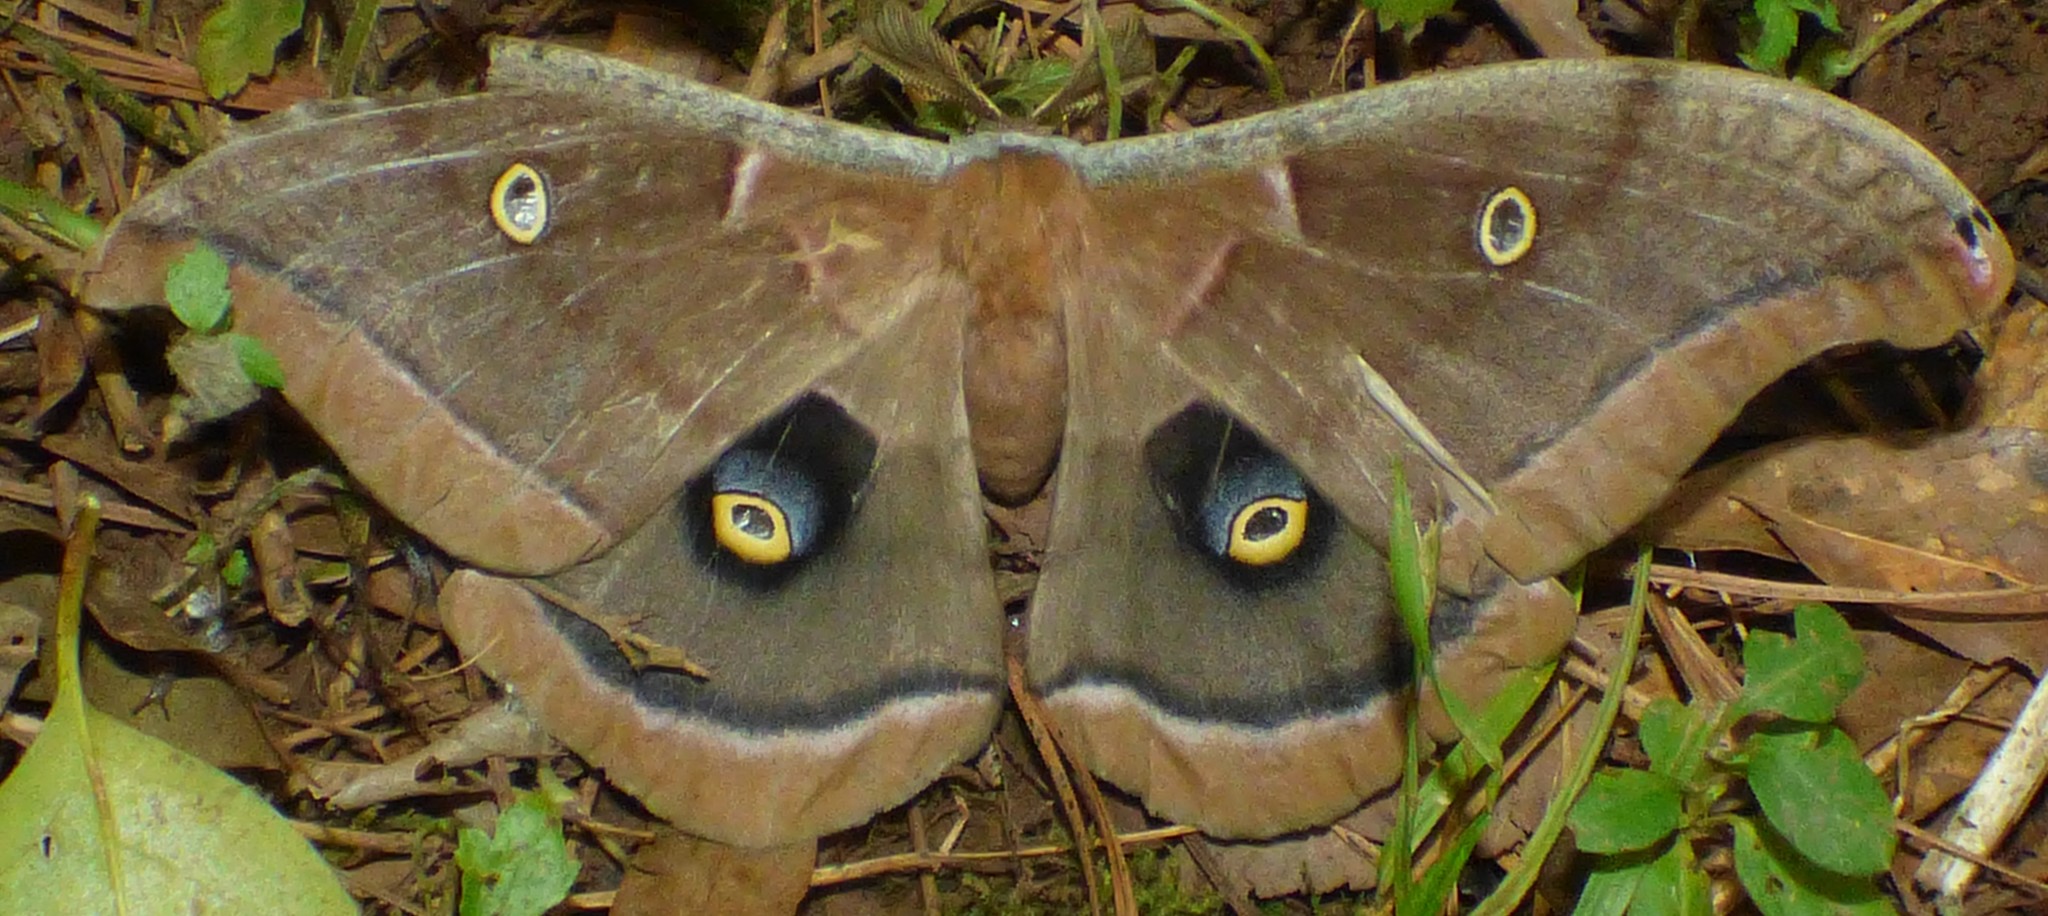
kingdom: Animalia
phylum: Arthropoda
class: Insecta
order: Lepidoptera
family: Saturniidae
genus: Antheraea
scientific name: Antheraea polyphemus
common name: Polyphemus moth
